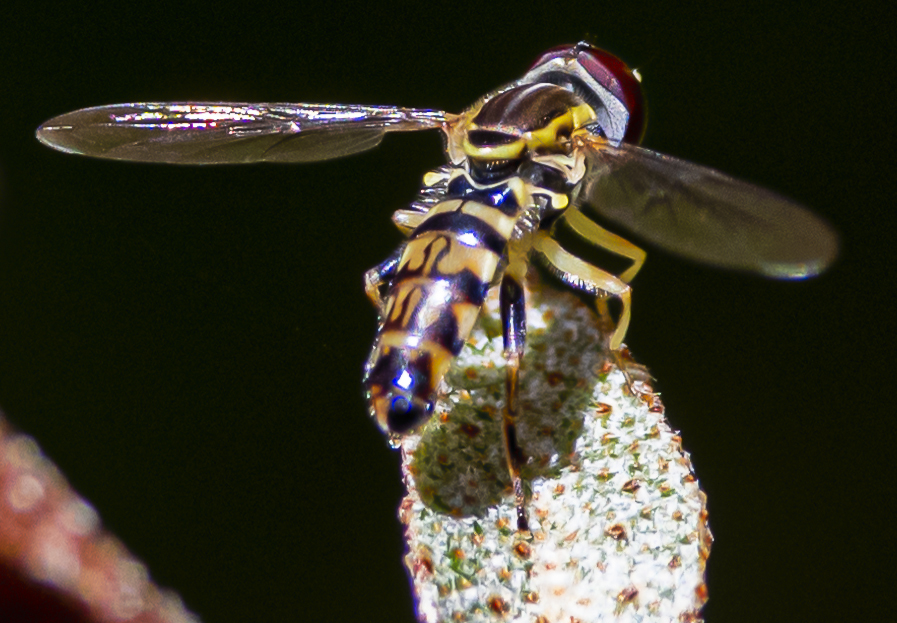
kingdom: Animalia
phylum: Arthropoda
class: Insecta
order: Diptera
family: Syrphidae
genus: Toxomerus
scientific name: Toxomerus geminatus
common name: Eastern calligrapher
